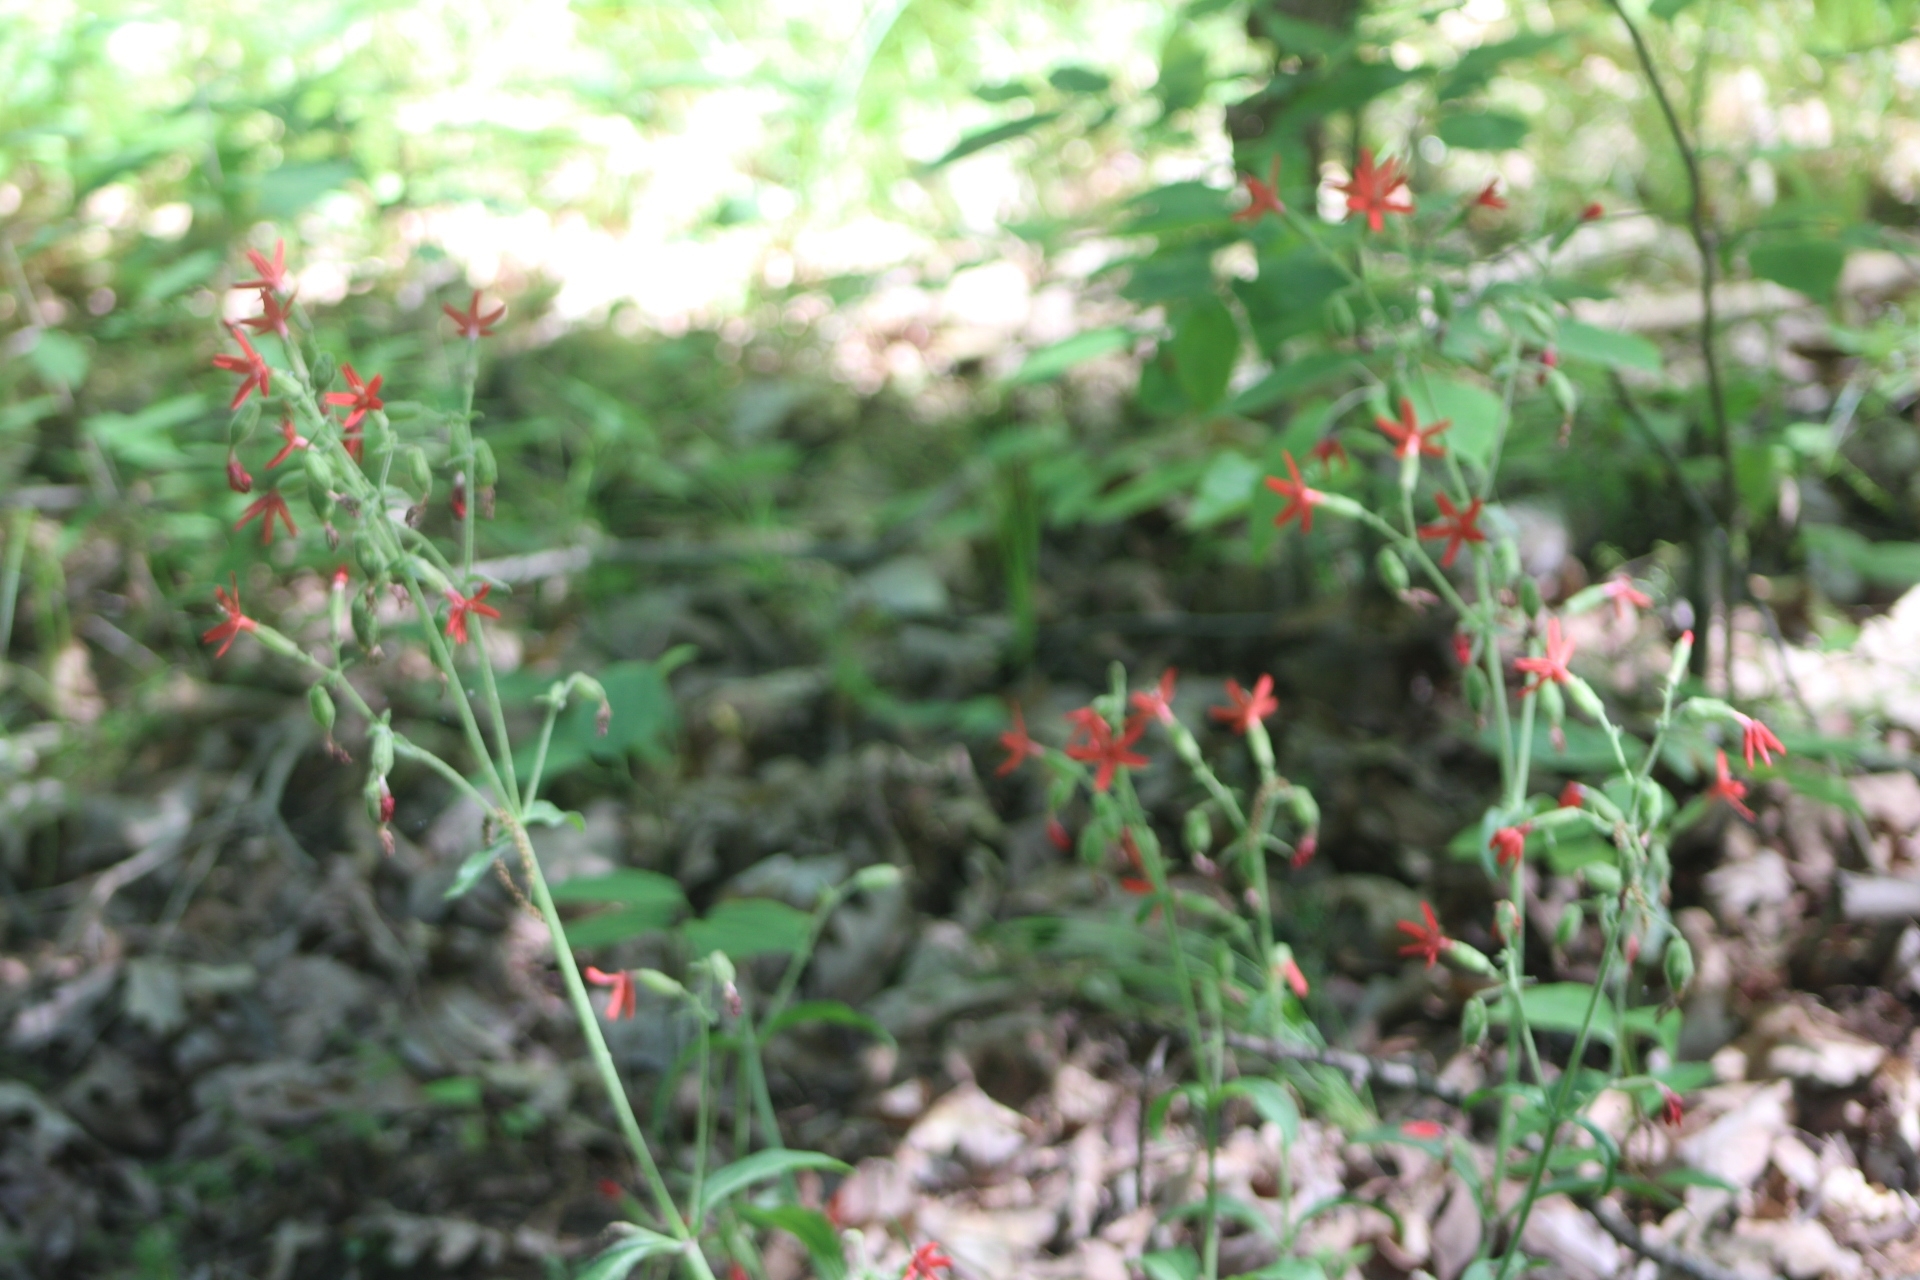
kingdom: Plantae
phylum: Tracheophyta
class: Magnoliopsida
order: Caryophyllales
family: Caryophyllaceae
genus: Silene
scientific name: Silene virginica
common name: Fire-pink
